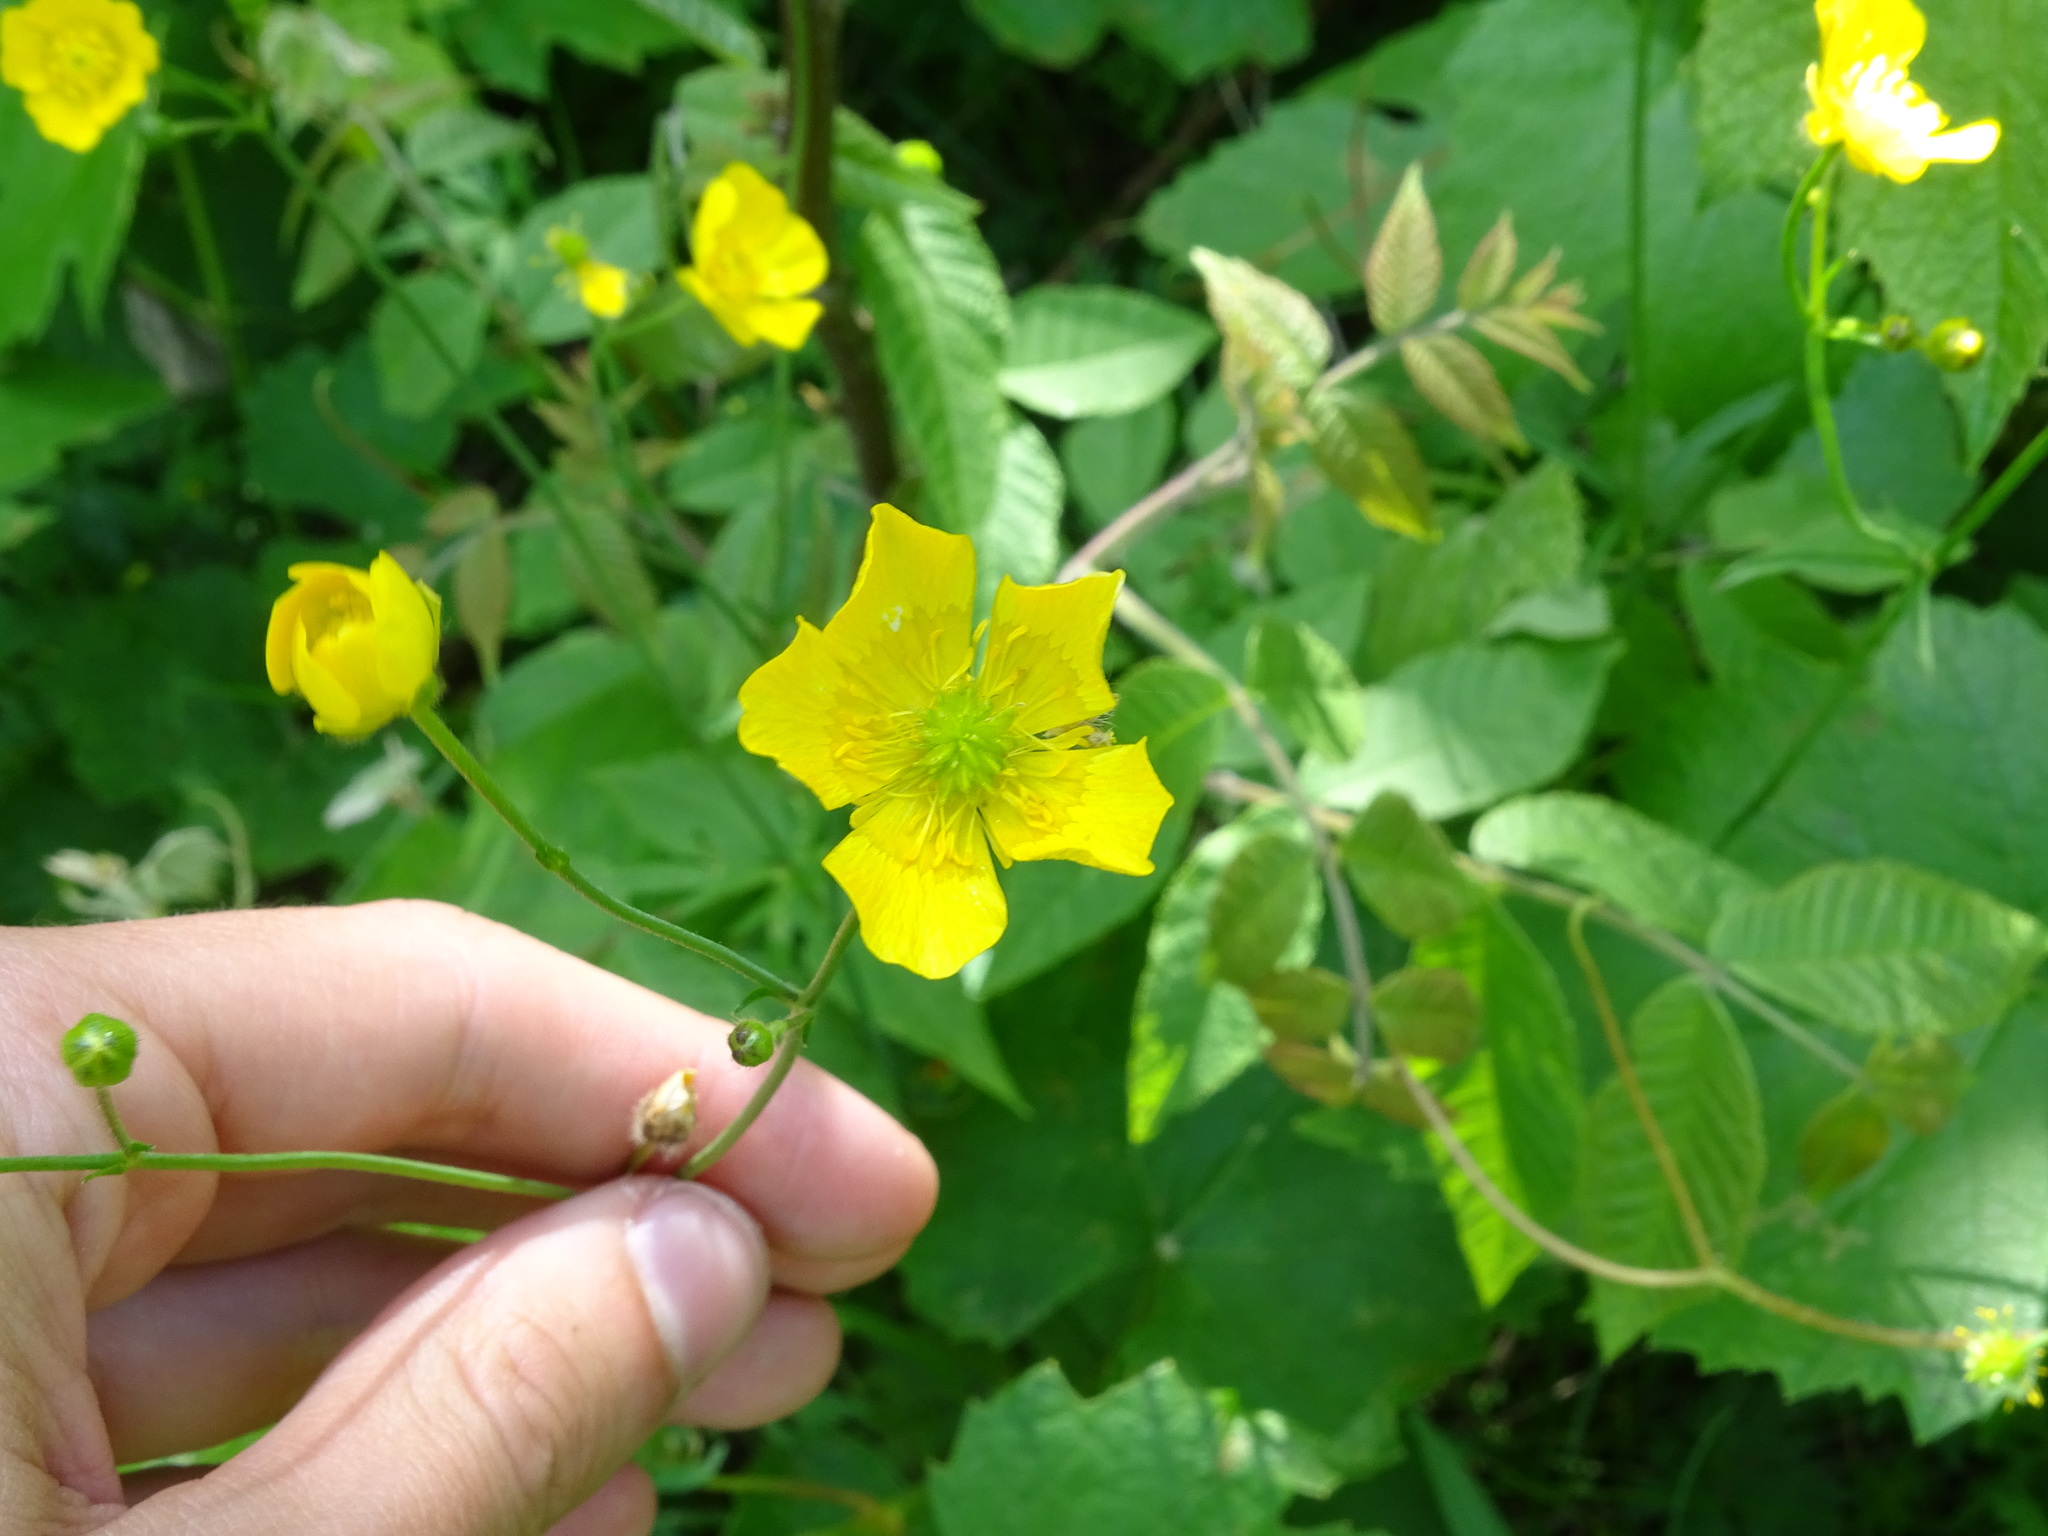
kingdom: Plantae
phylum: Tracheophyta
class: Magnoliopsida
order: Ranunculales
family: Ranunculaceae
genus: Ranunculus
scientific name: Ranunculus acris
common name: Meadow buttercup
